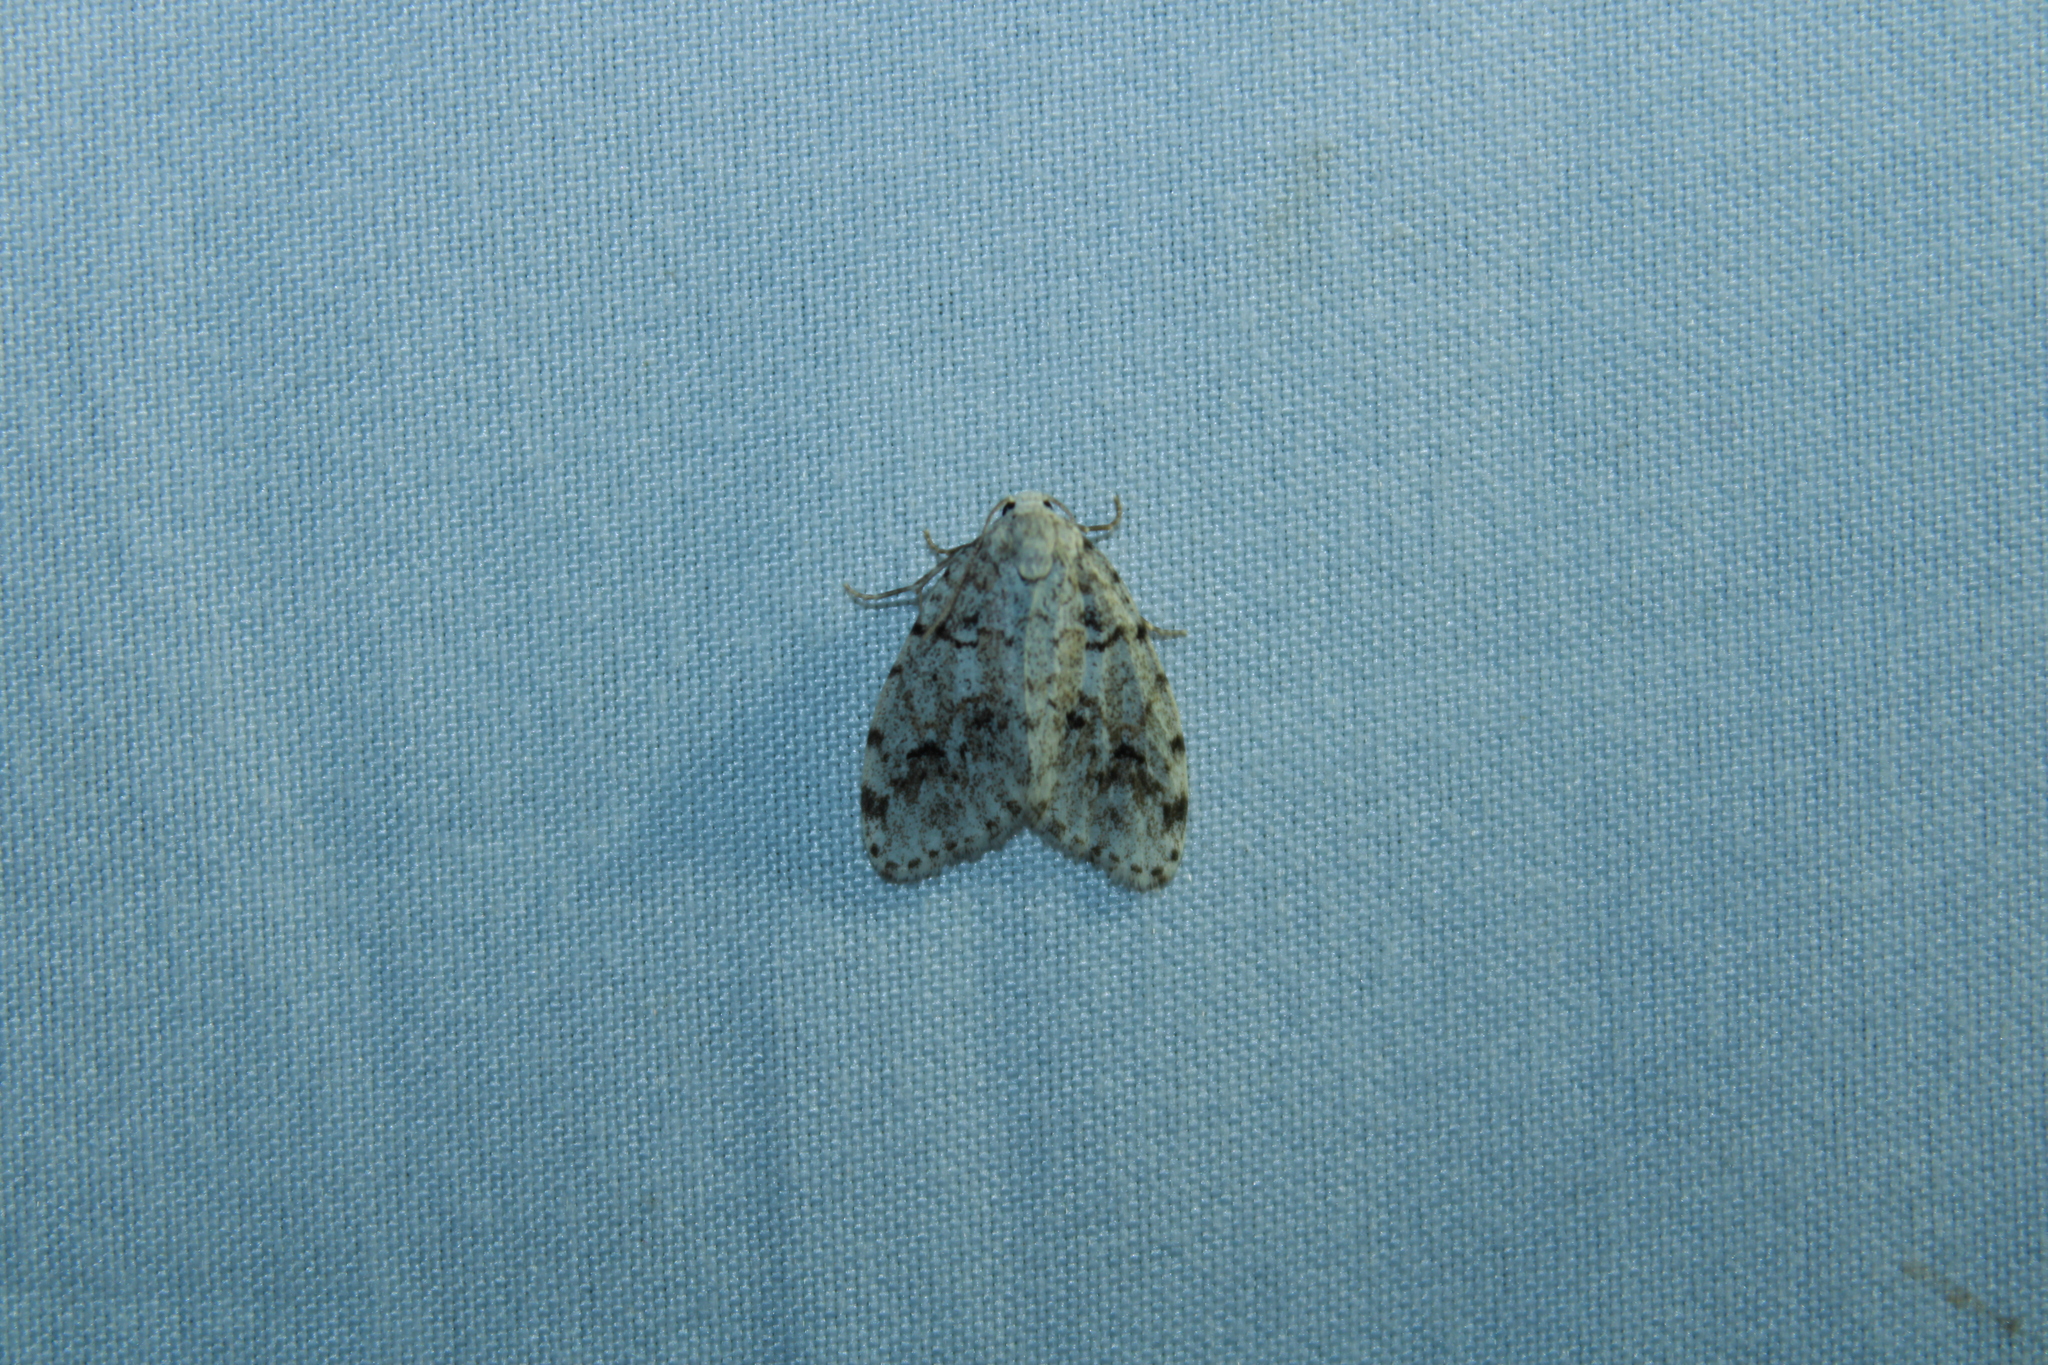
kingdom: Animalia
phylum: Arthropoda
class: Insecta
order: Lepidoptera
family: Erebidae
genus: Clemensia
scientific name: Clemensia albata
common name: Little white lichen moth
